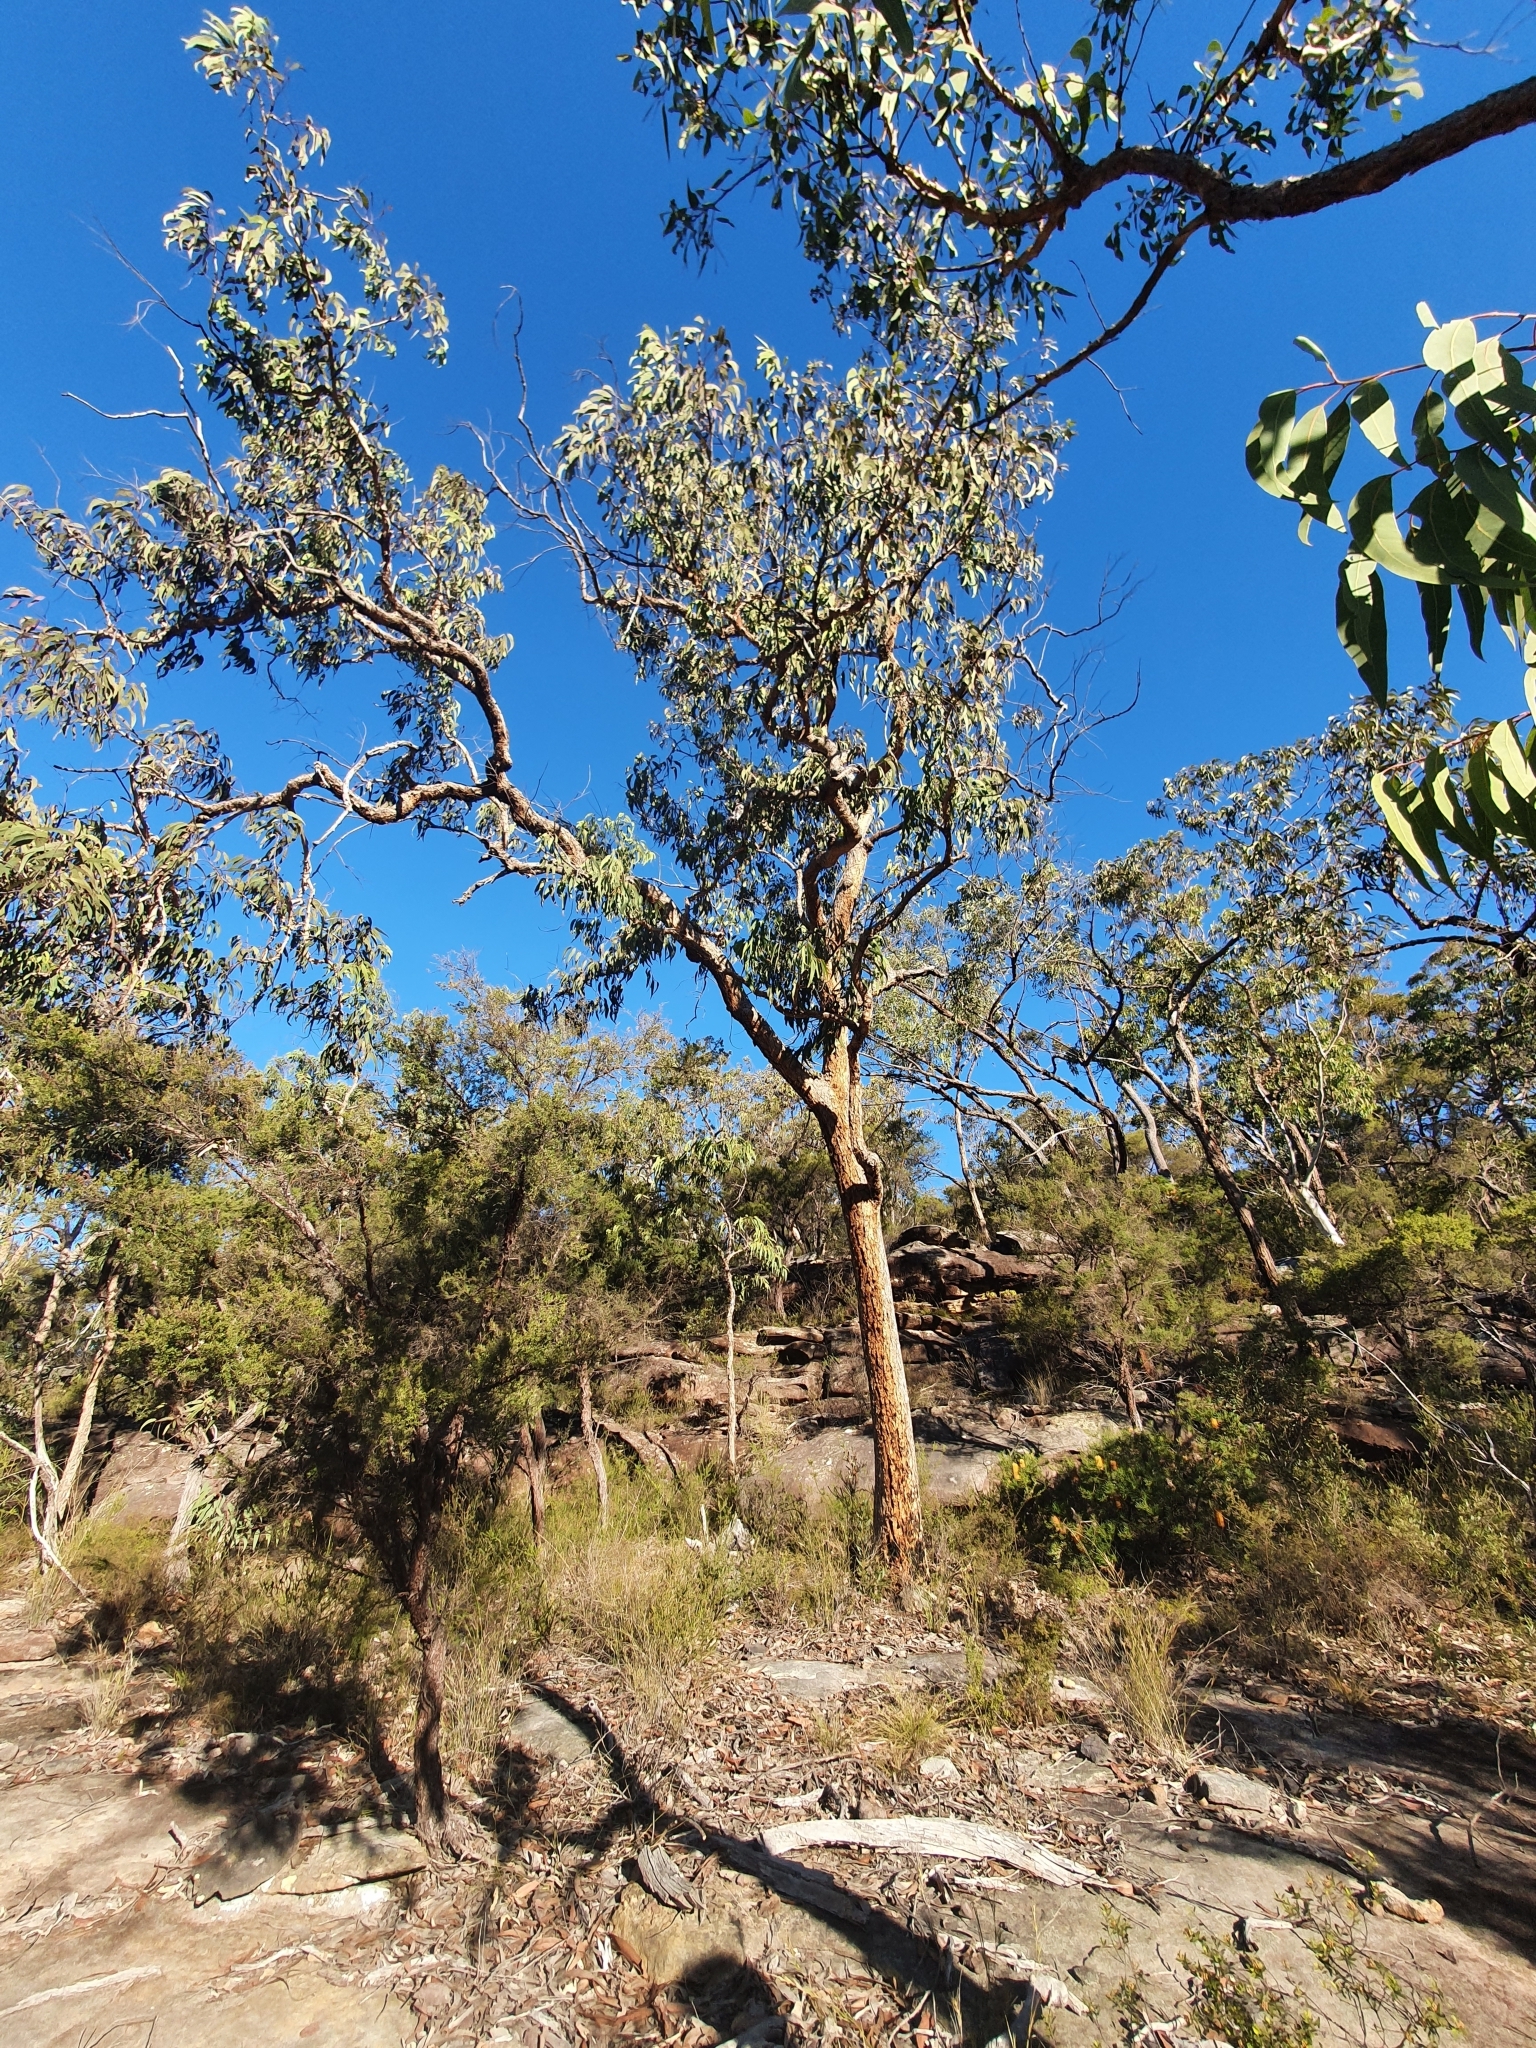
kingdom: Plantae
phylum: Tracheophyta
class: Magnoliopsida
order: Myrtales
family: Myrtaceae
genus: Corymbia
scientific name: Corymbia eximia
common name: Yellow bloodwood
